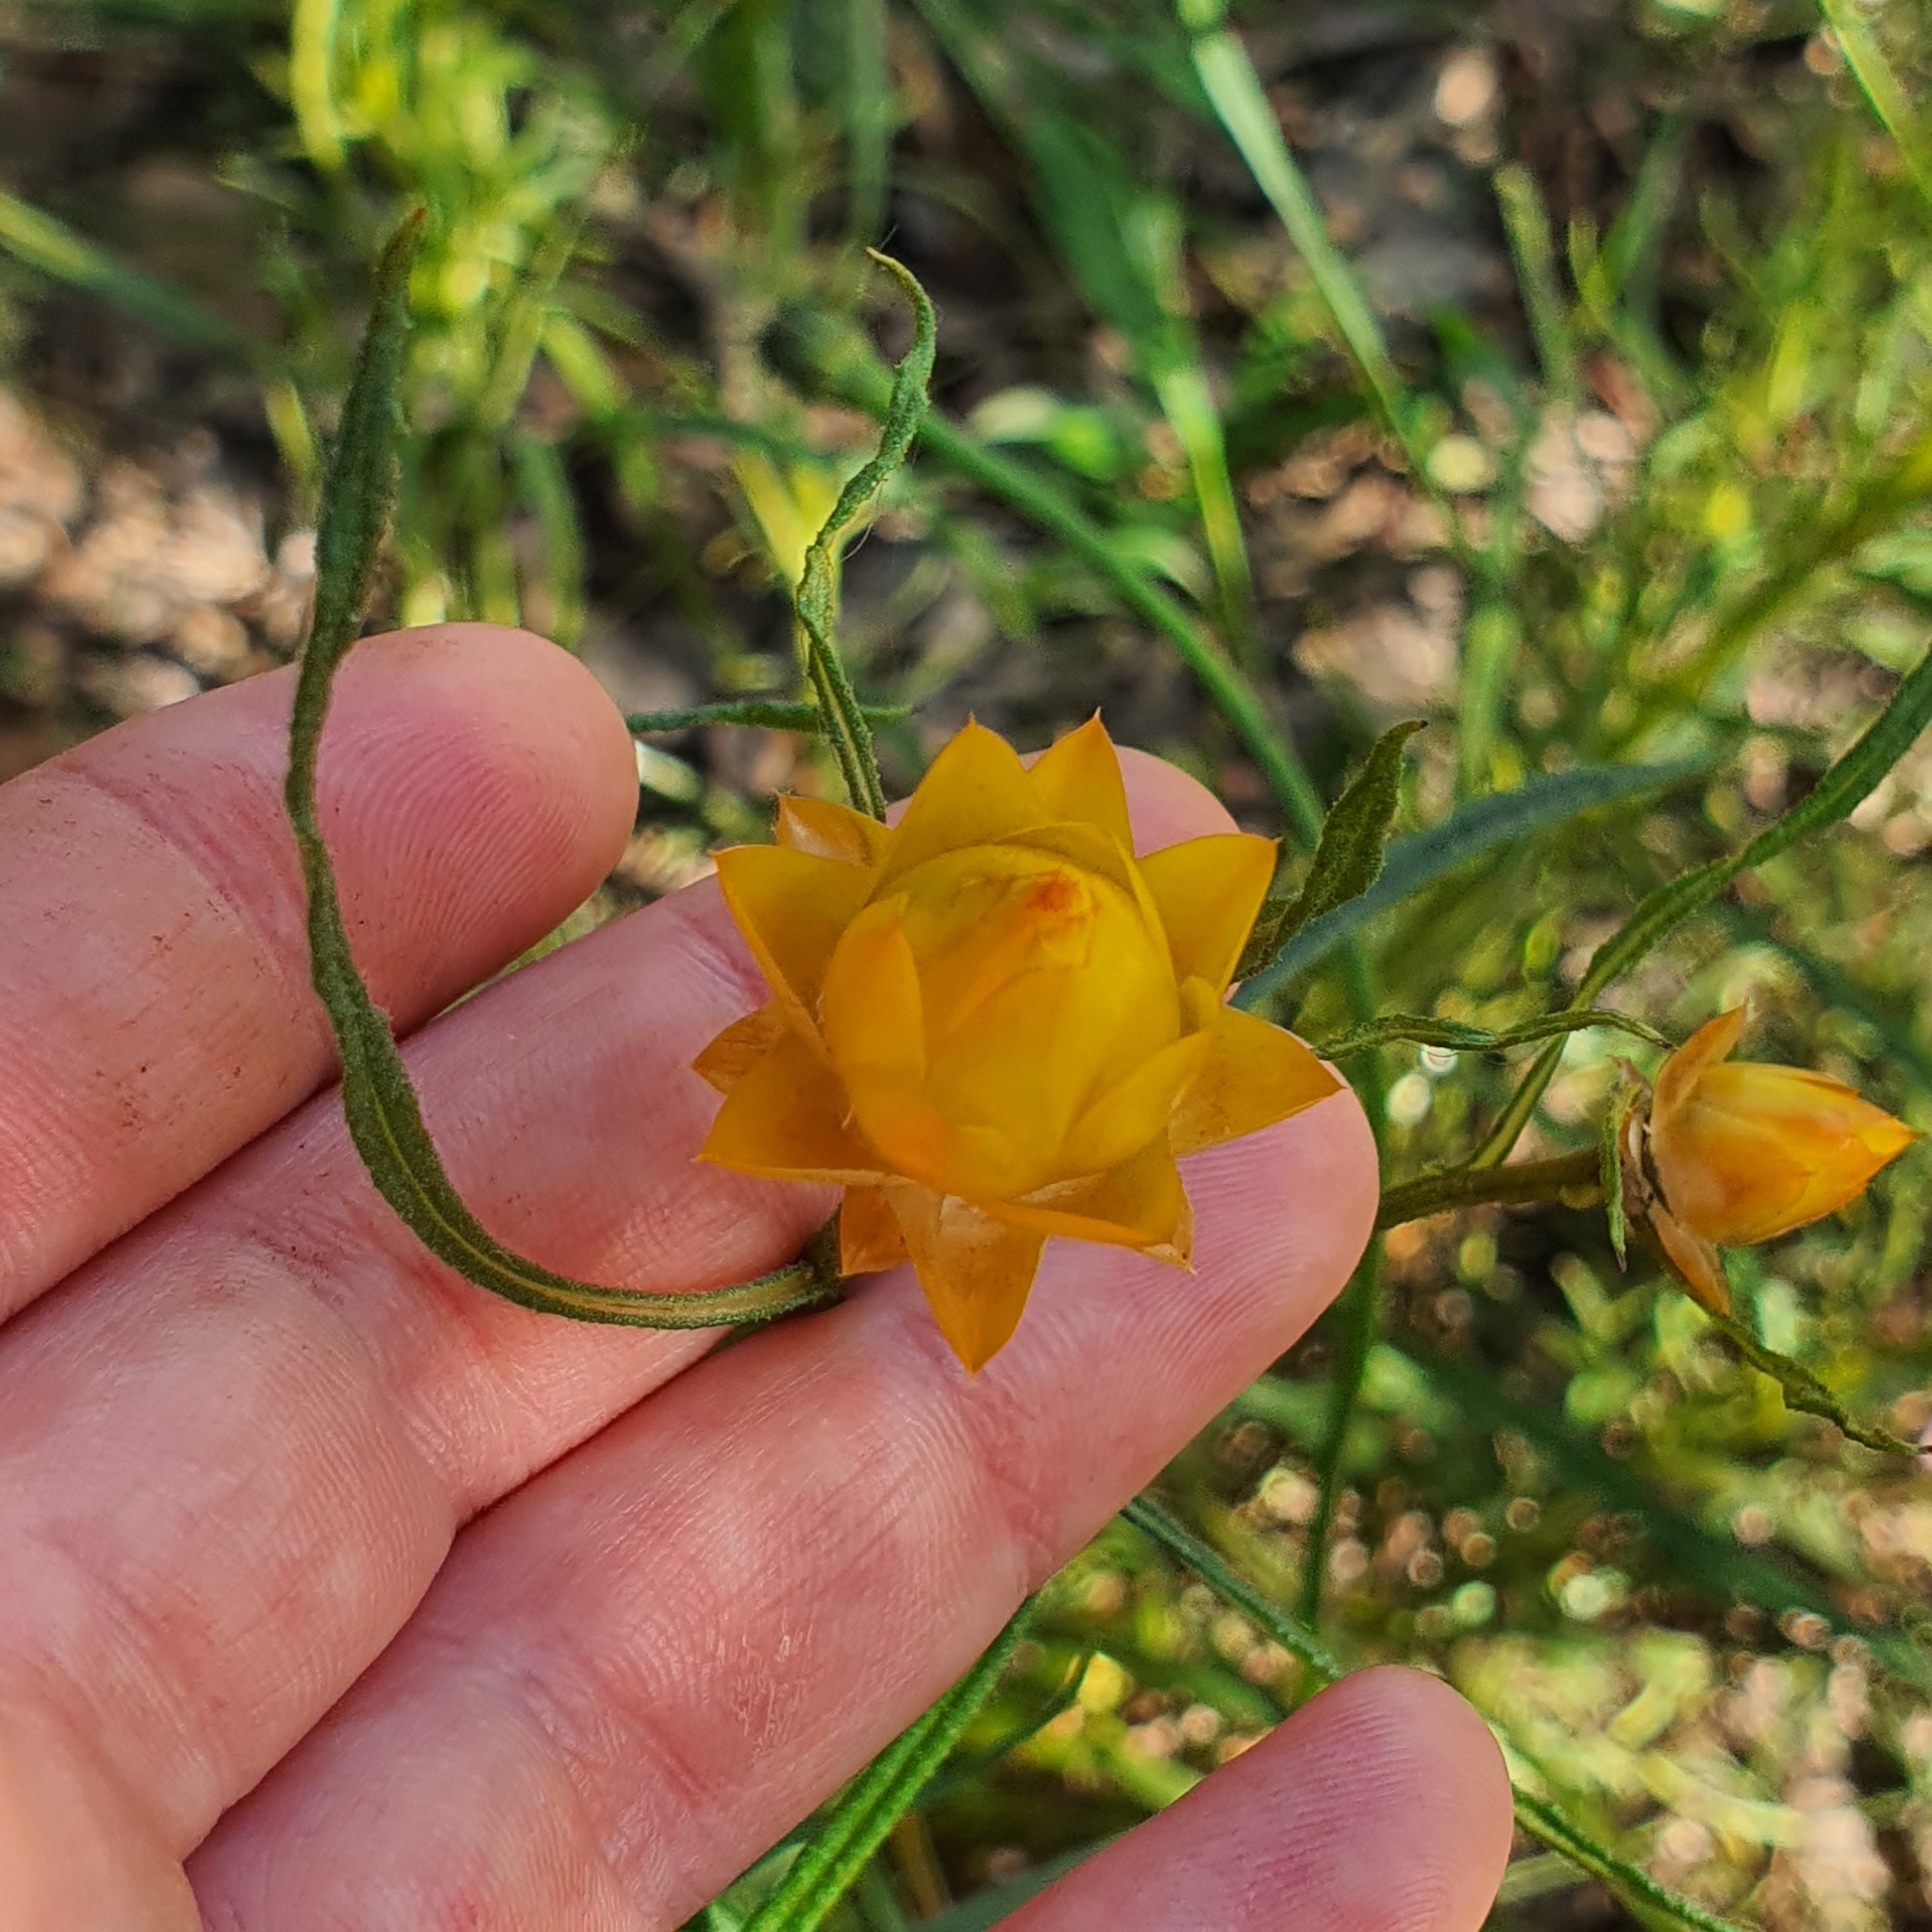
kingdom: Plantae
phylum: Tracheophyta
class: Magnoliopsida
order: Asterales
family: Asteraceae
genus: Xerochrysum
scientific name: Xerochrysum viscosum
